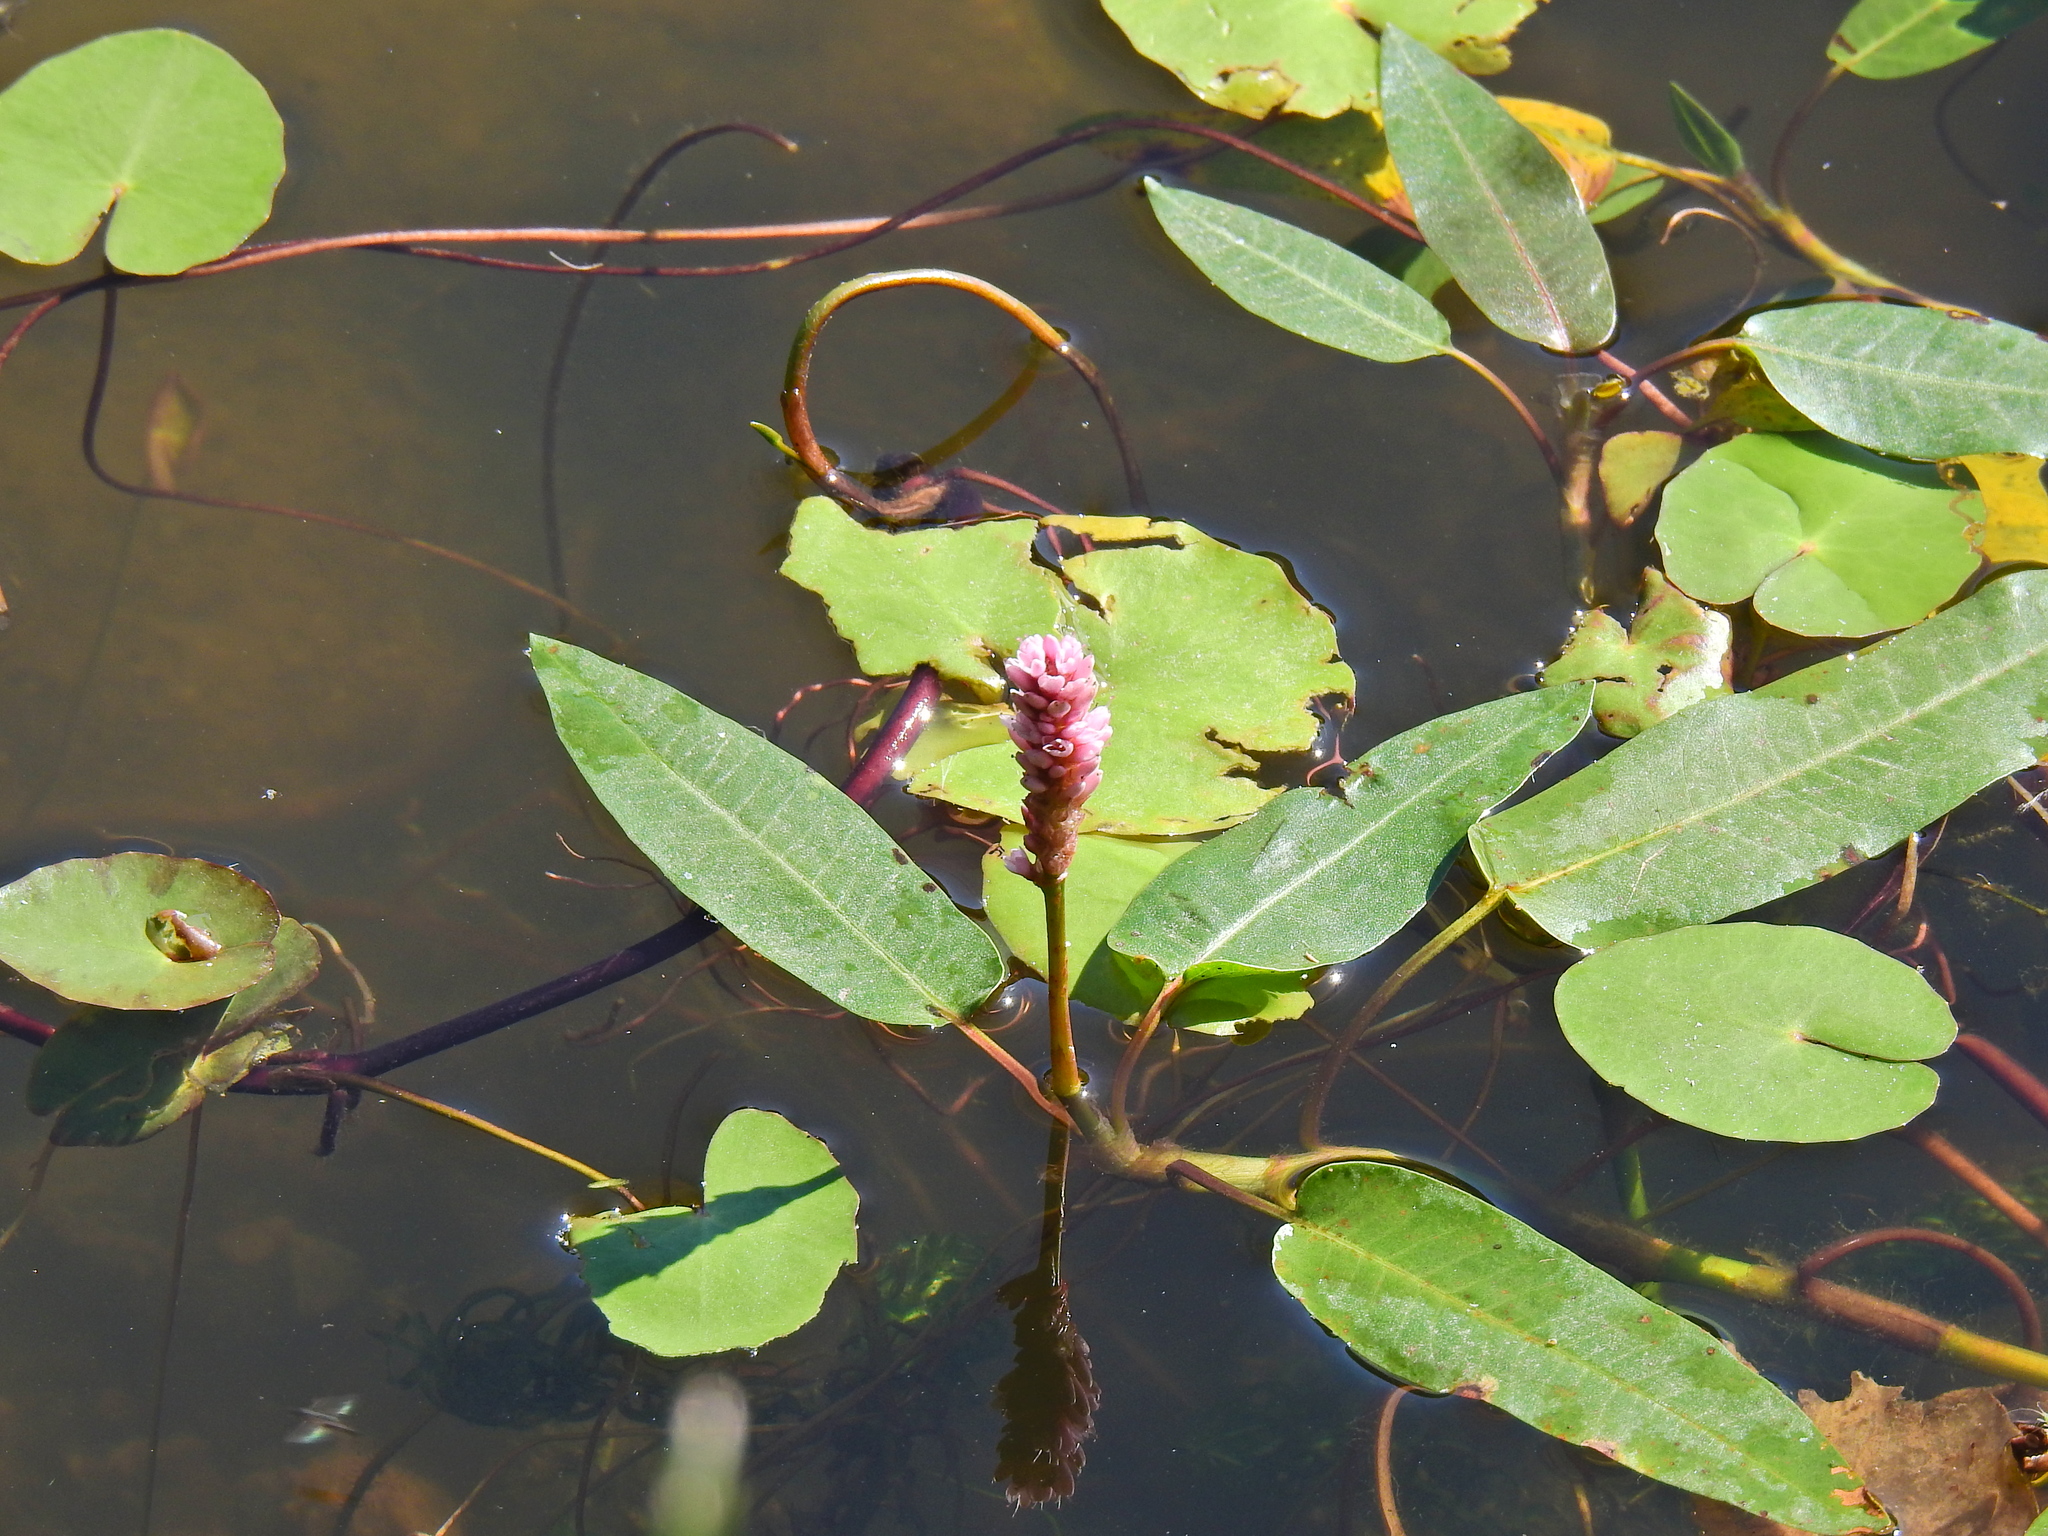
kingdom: Plantae
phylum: Tracheophyta
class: Magnoliopsida
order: Caryophyllales
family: Polygonaceae
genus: Persicaria
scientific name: Persicaria amphibia
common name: Amphibious bistort
